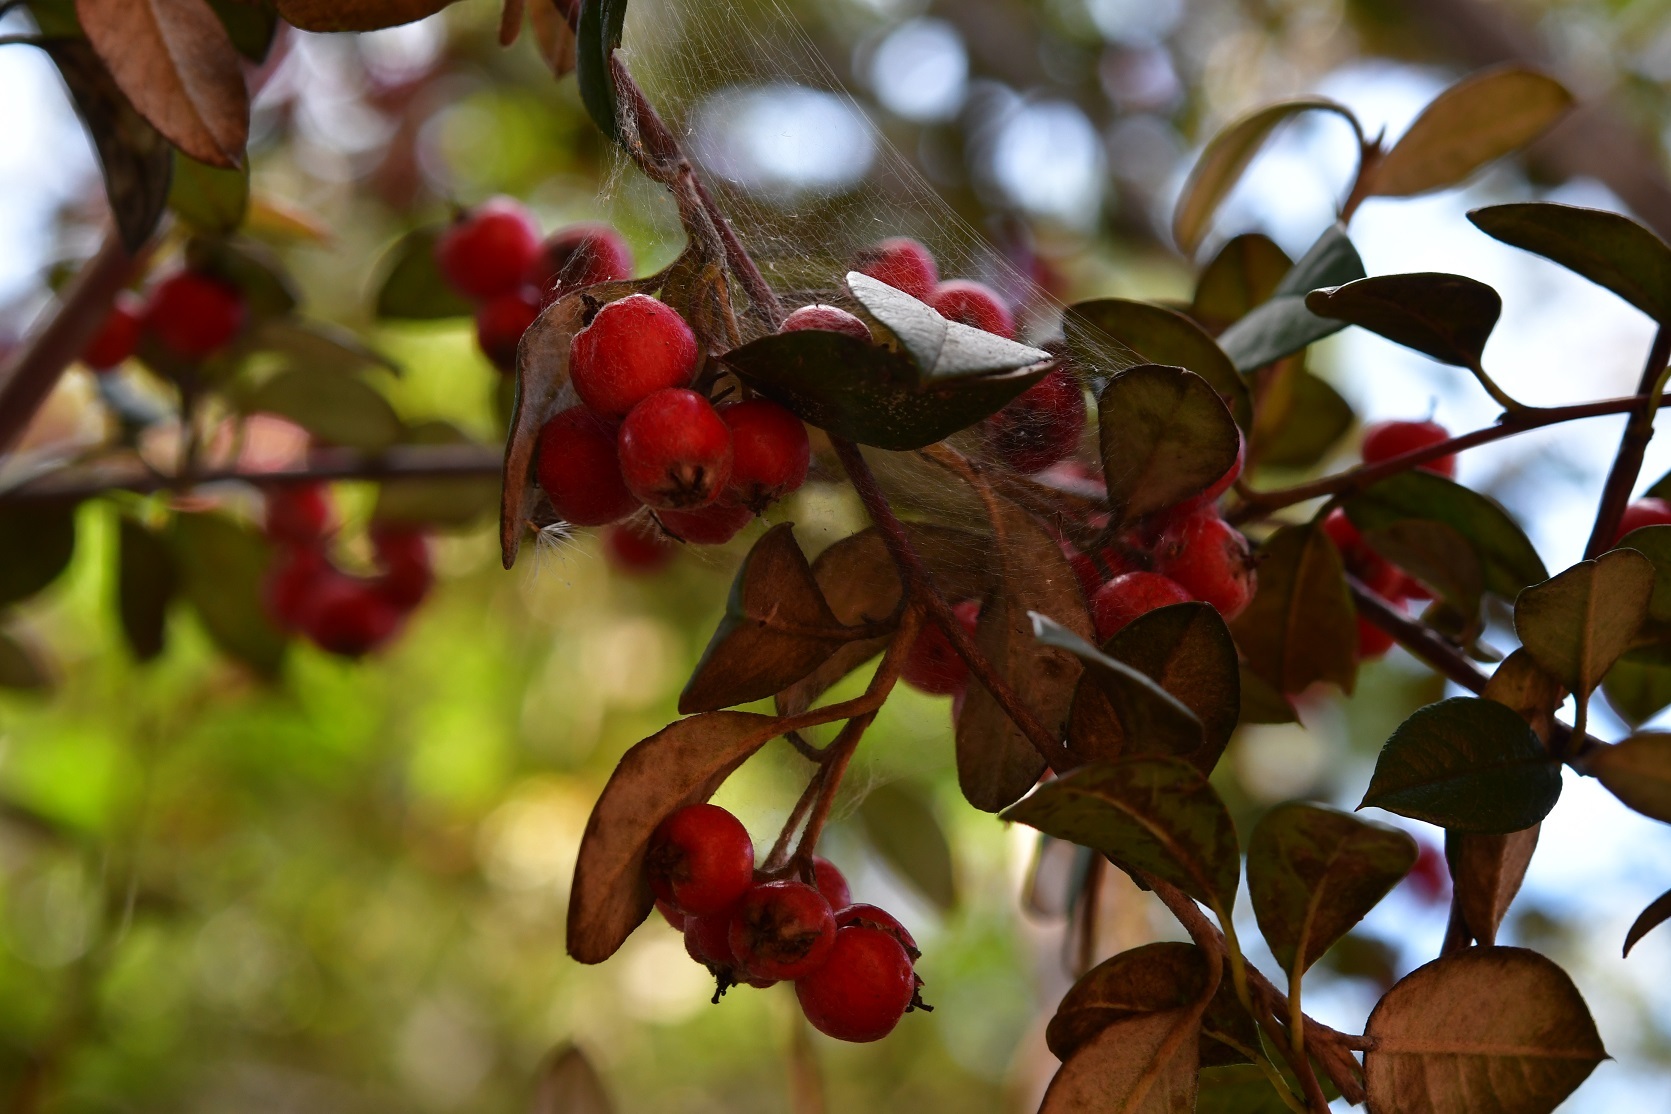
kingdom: Plantae
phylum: Tracheophyta
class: Magnoliopsida
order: Rosales
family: Rosaceae
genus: Cotoneaster
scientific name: Cotoneaster pannosus
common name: Silverleaf cotoneaster
